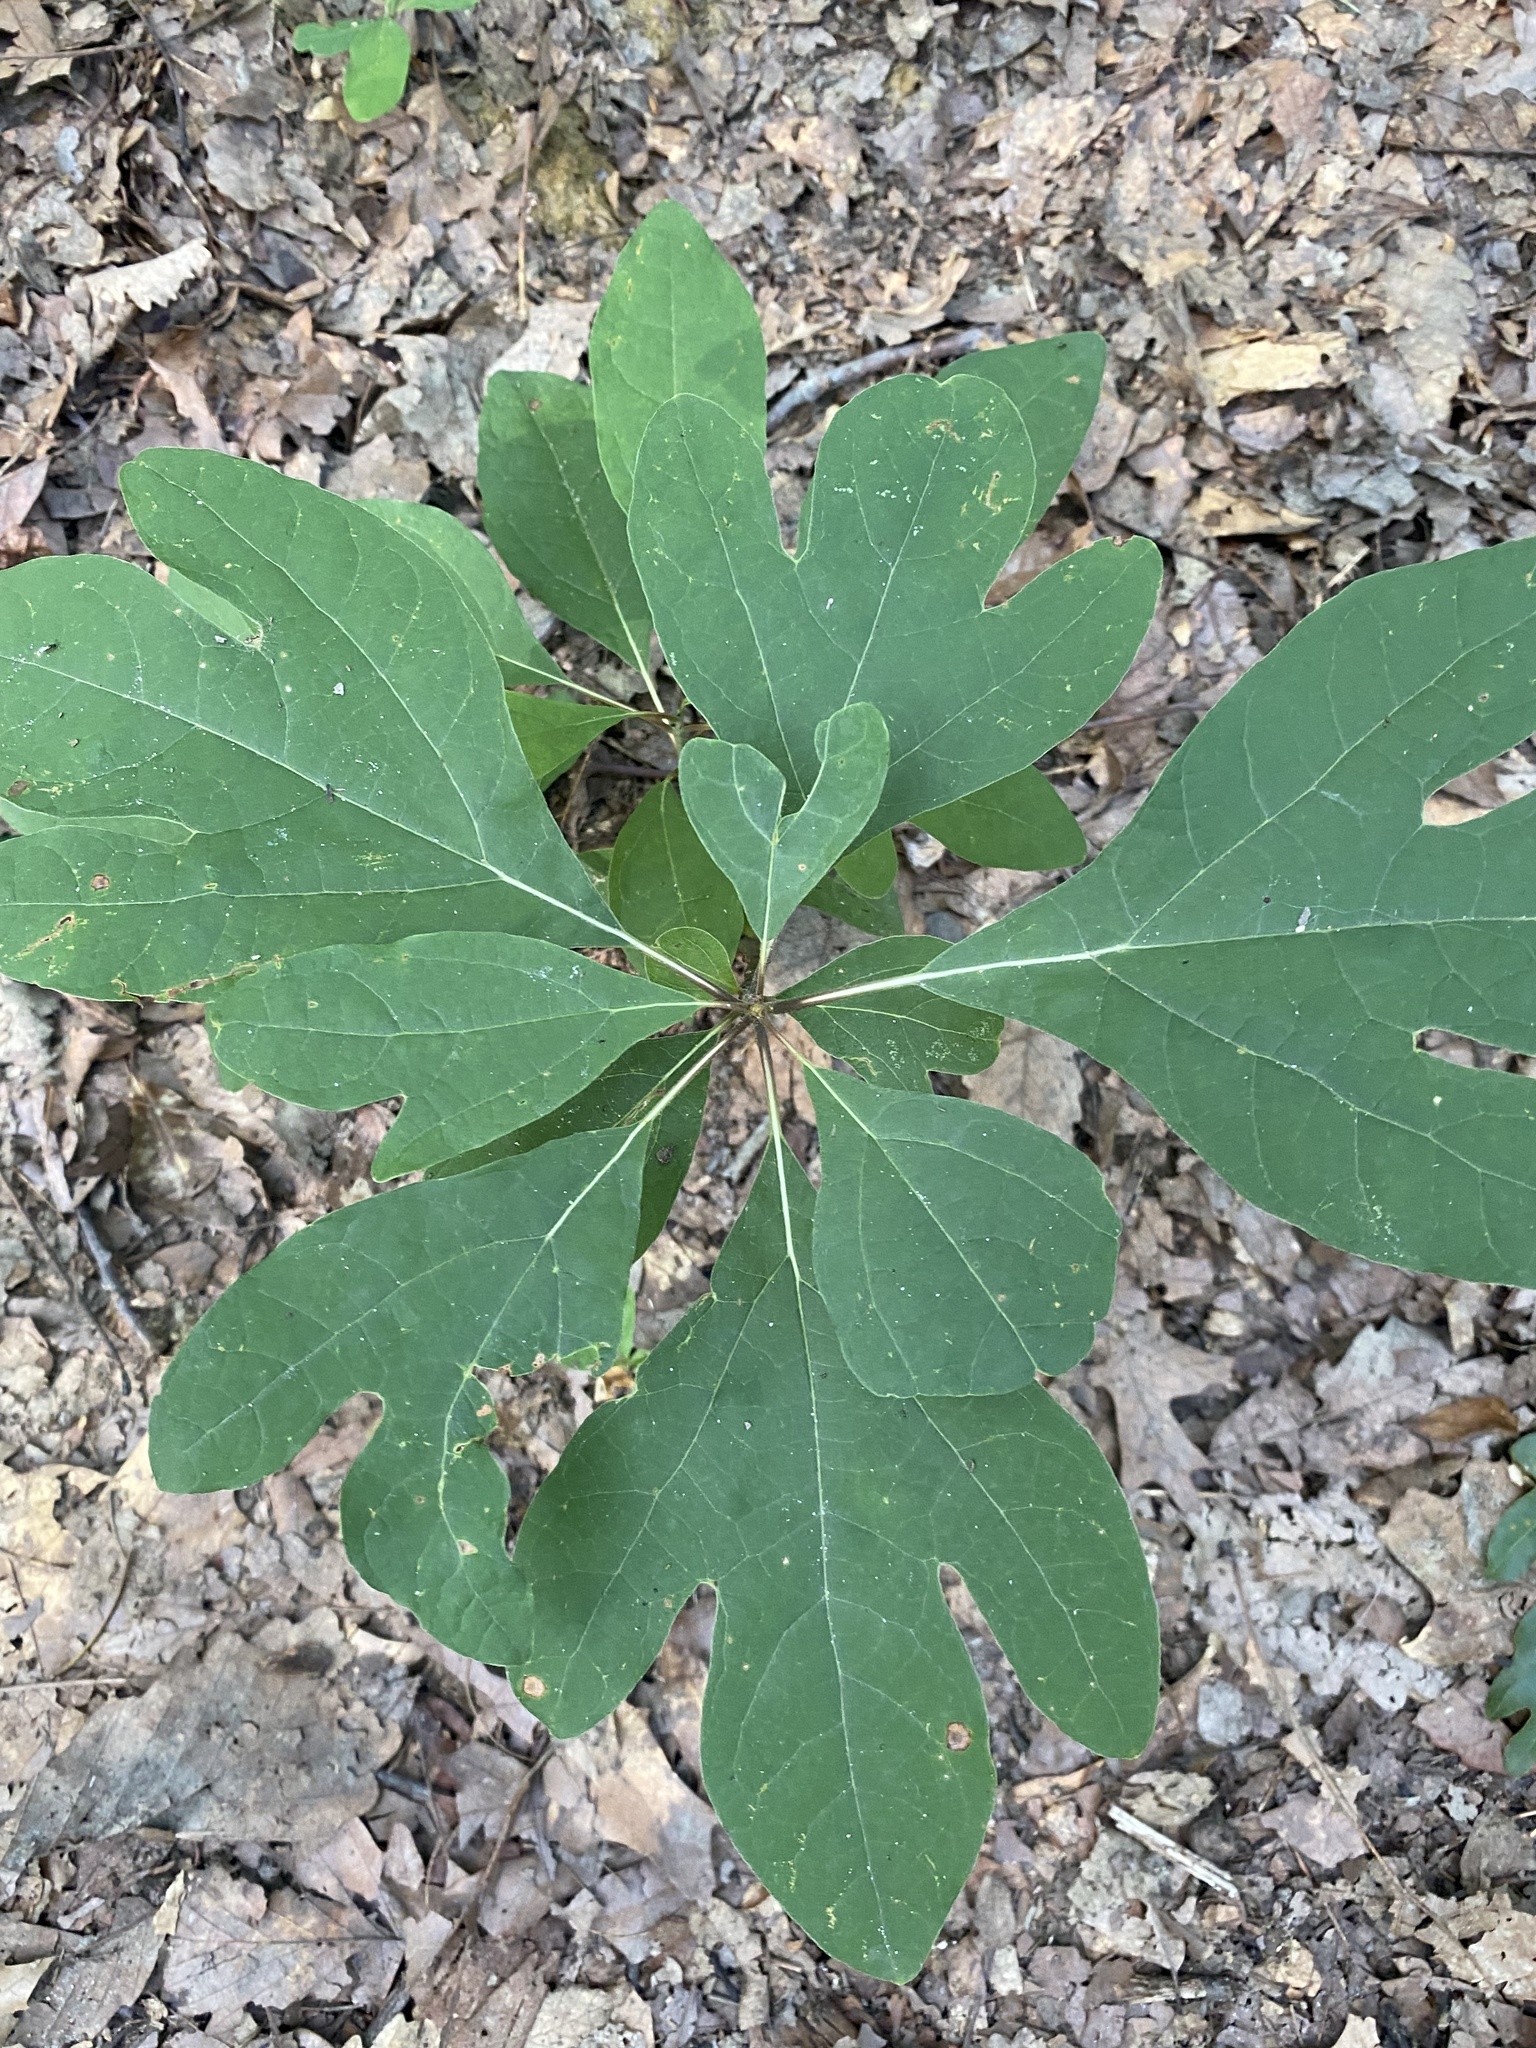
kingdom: Plantae
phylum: Tracheophyta
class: Magnoliopsida
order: Laurales
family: Lauraceae
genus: Sassafras
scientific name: Sassafras albidum
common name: Sassafras
